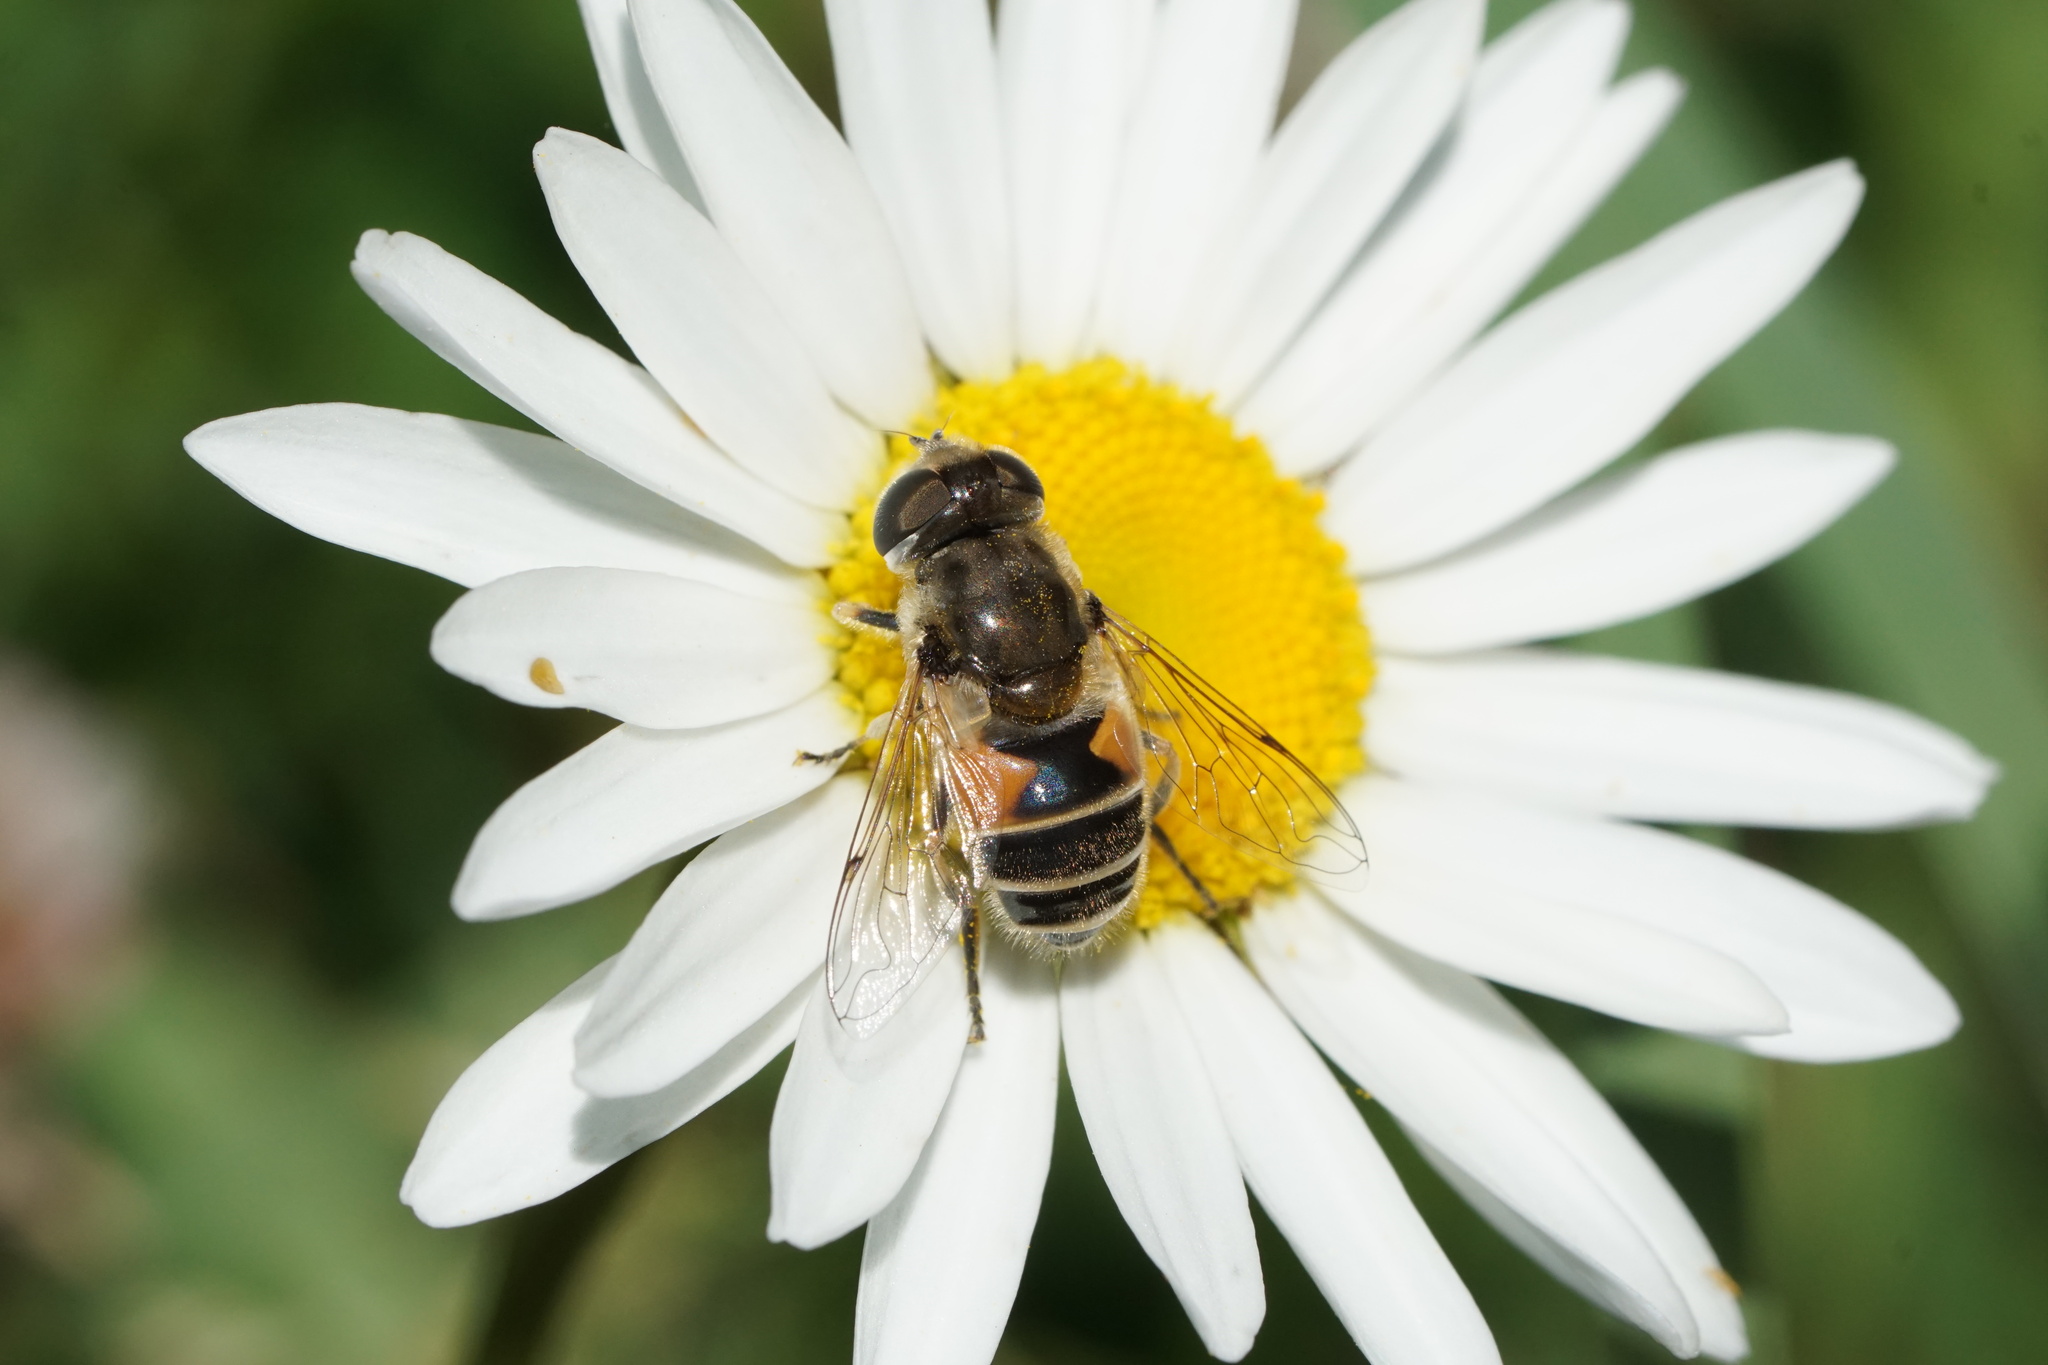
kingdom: Animalia
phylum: Arthropoda
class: Insecta
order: Diptera
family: Syrphidae
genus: Eristalis
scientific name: Eristalis arbustorum
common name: Hover fly
